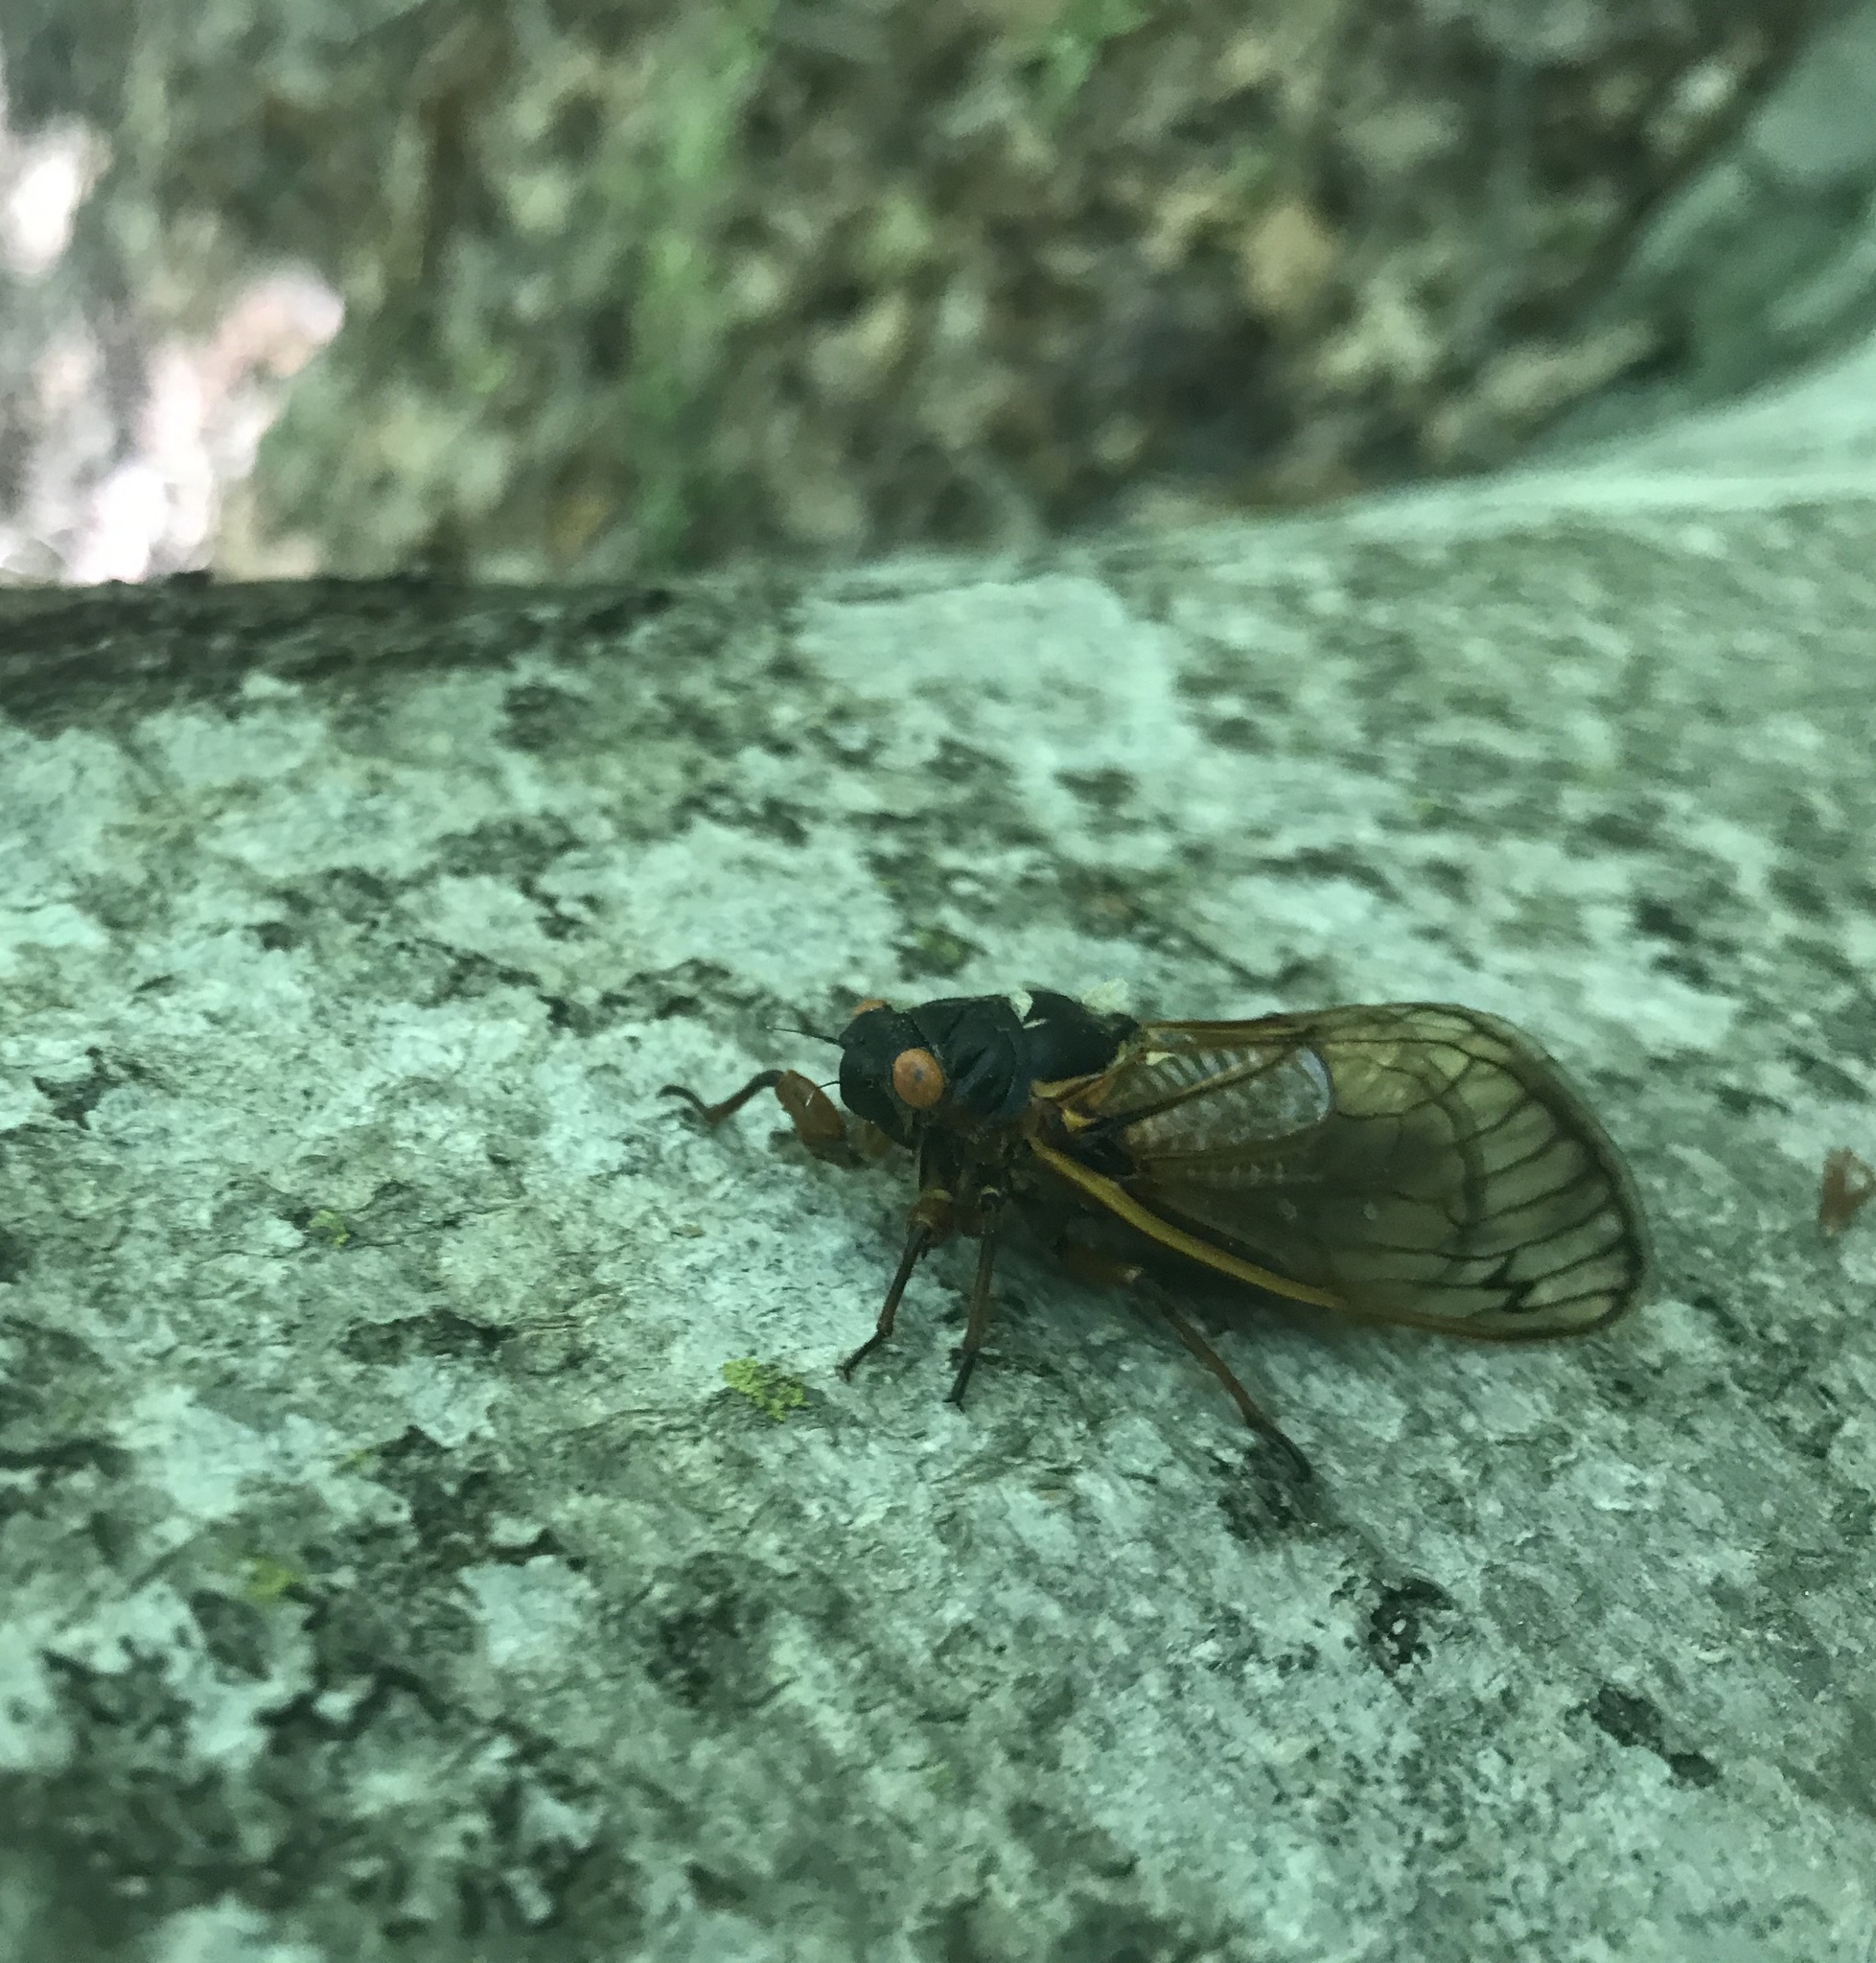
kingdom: Animalia
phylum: Arthropoda
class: Insecta
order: Hemiptera
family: Cicadidae
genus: Magicicada
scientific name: Magicicada septendecim
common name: Periodical cicada
